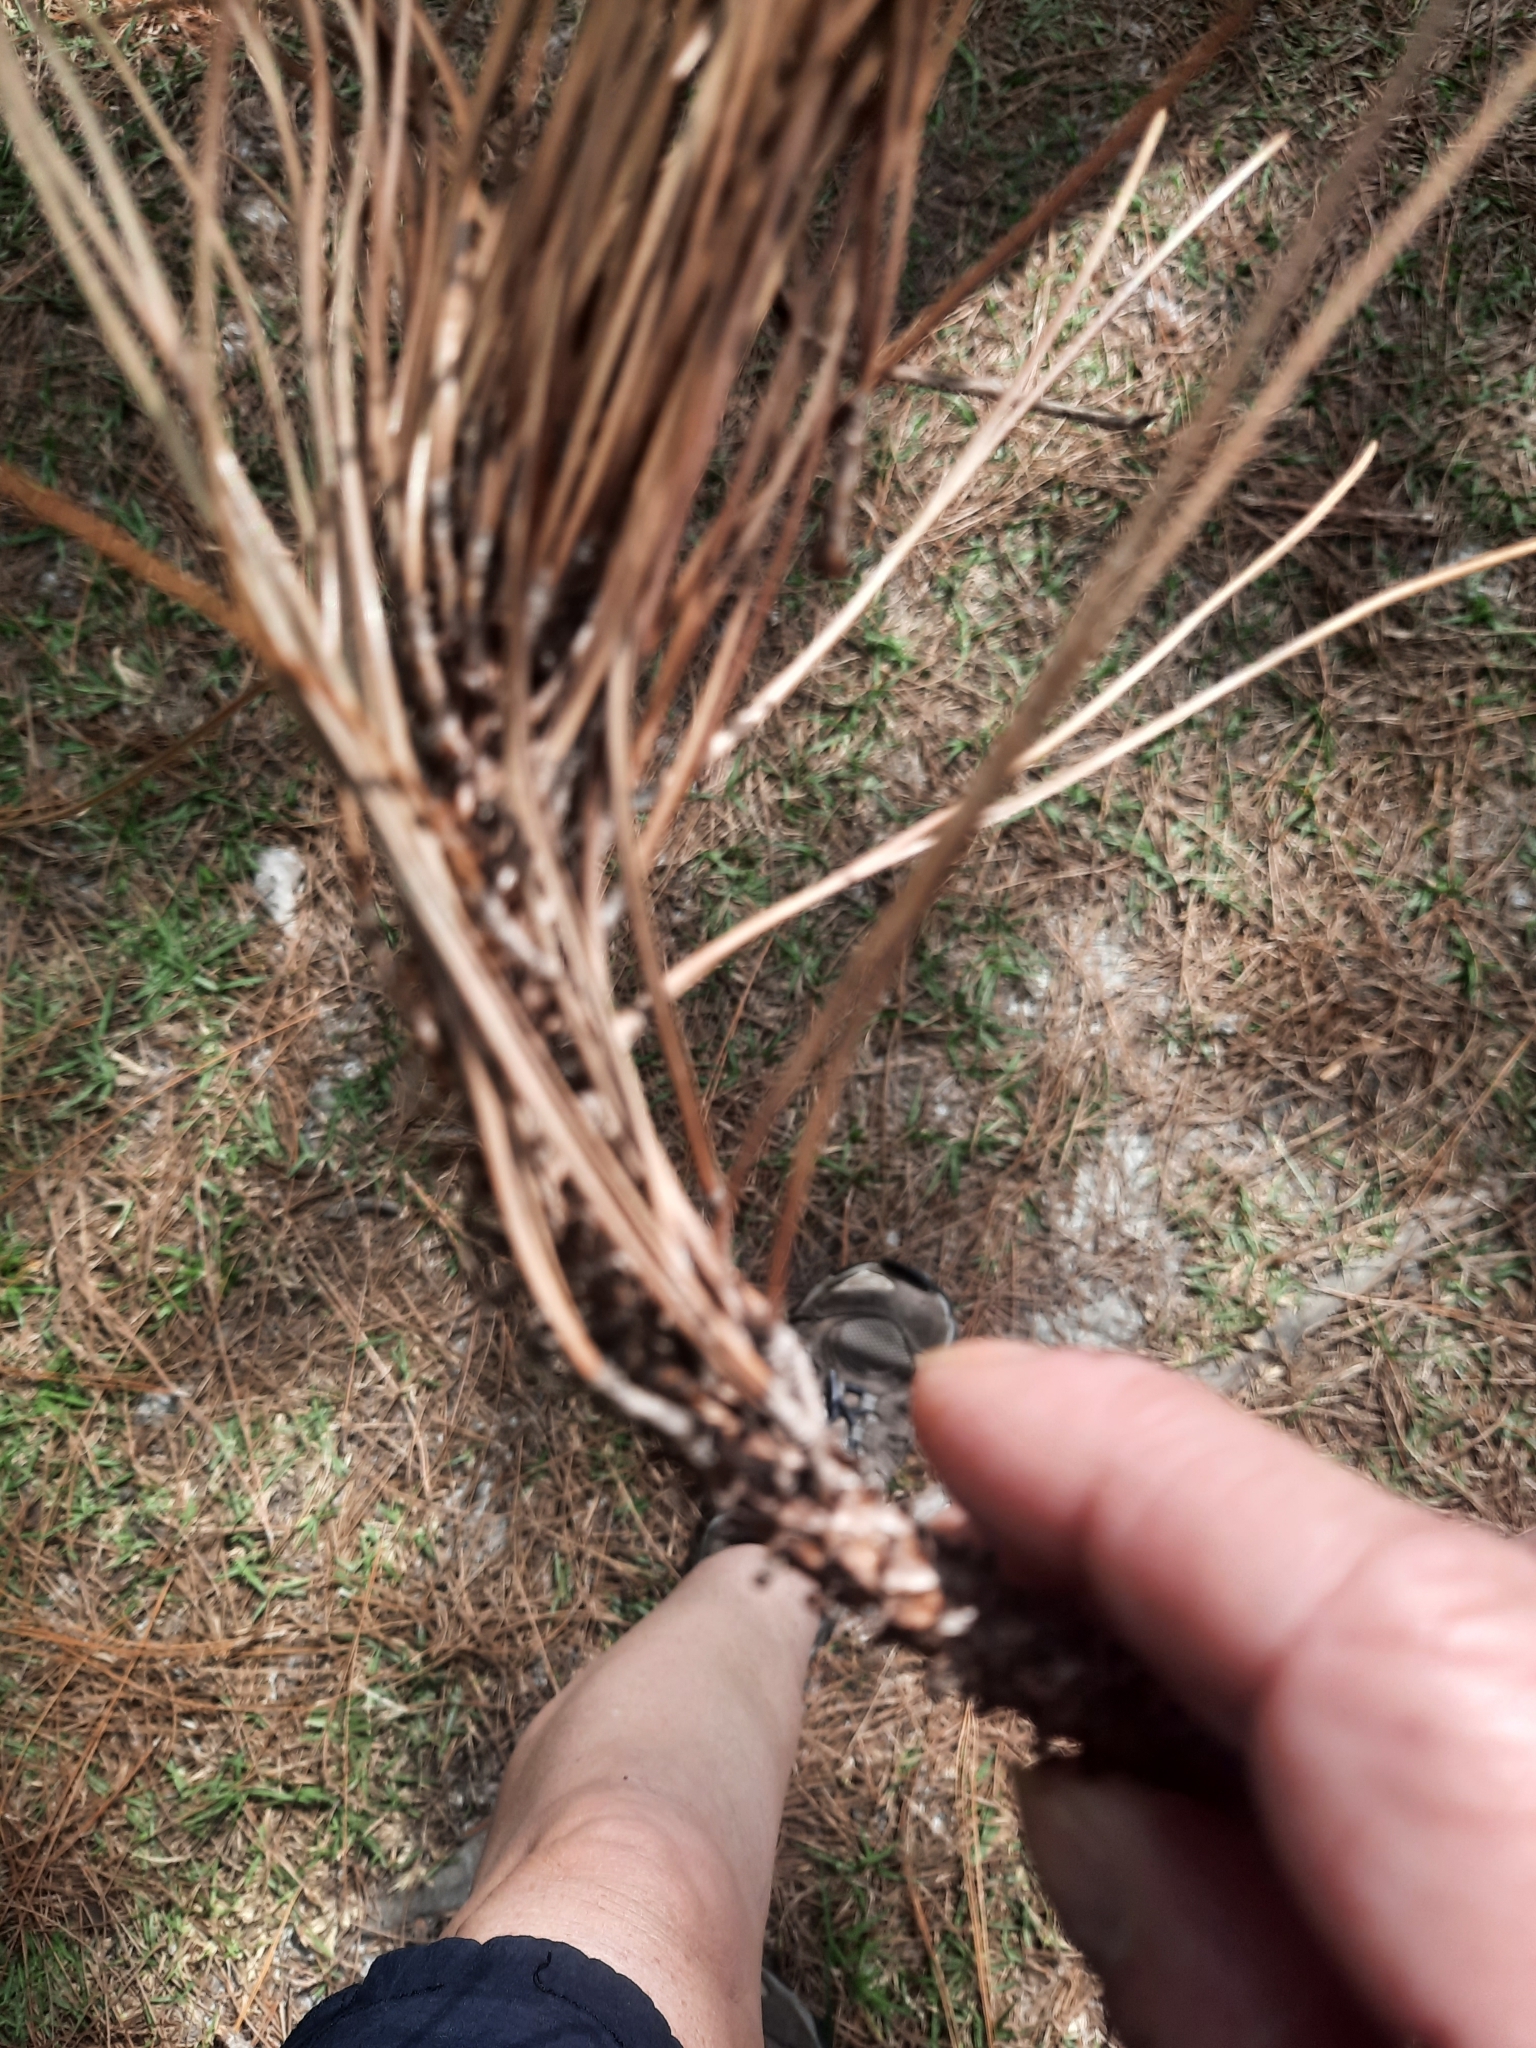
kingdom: Plantae
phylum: Tracheophyta
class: Pinopsida
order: Pinales
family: Pinaceae
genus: Pinus
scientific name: Pinus elliottii
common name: Slash pine
